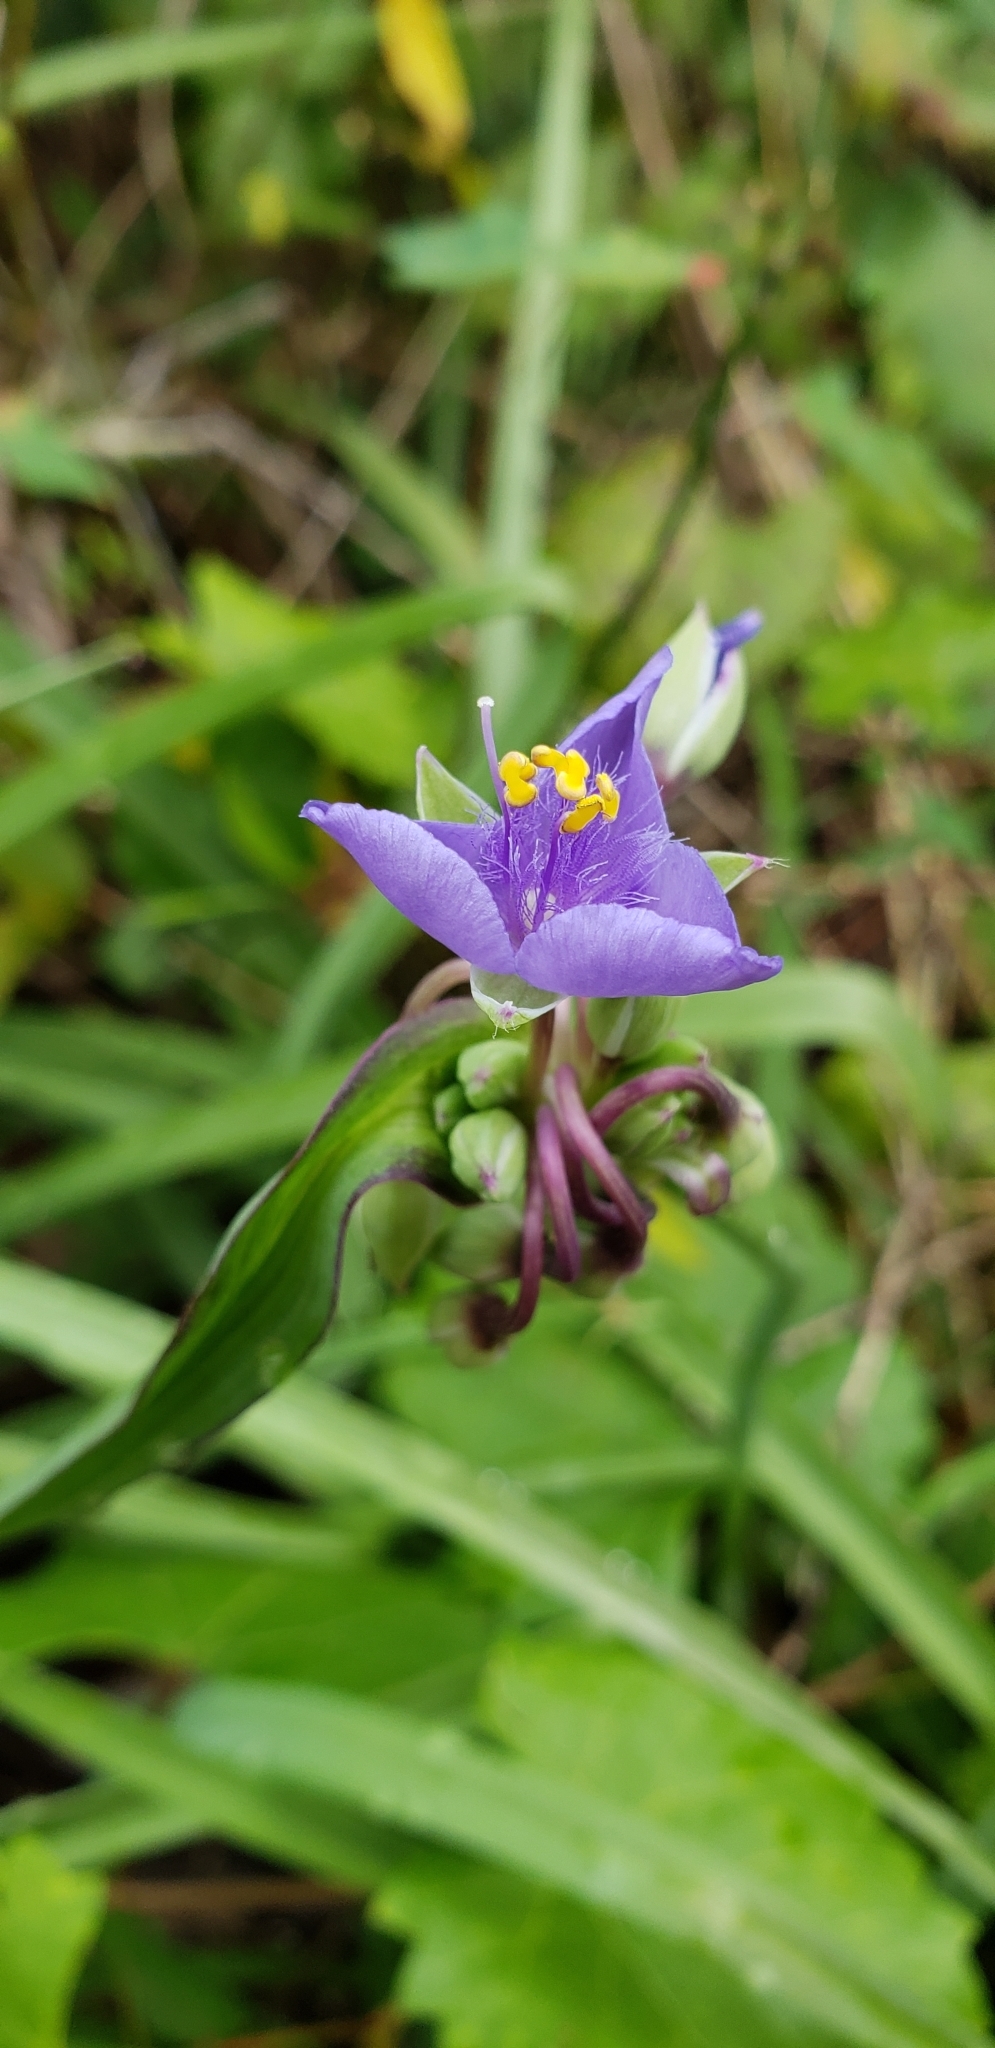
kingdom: Plantae
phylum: Tracheophyta
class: Liliopsida
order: Commelinales
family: Commelinaceae
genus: Tradescantia
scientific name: Tradescantia ohiensis
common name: Ohio spiderwort
